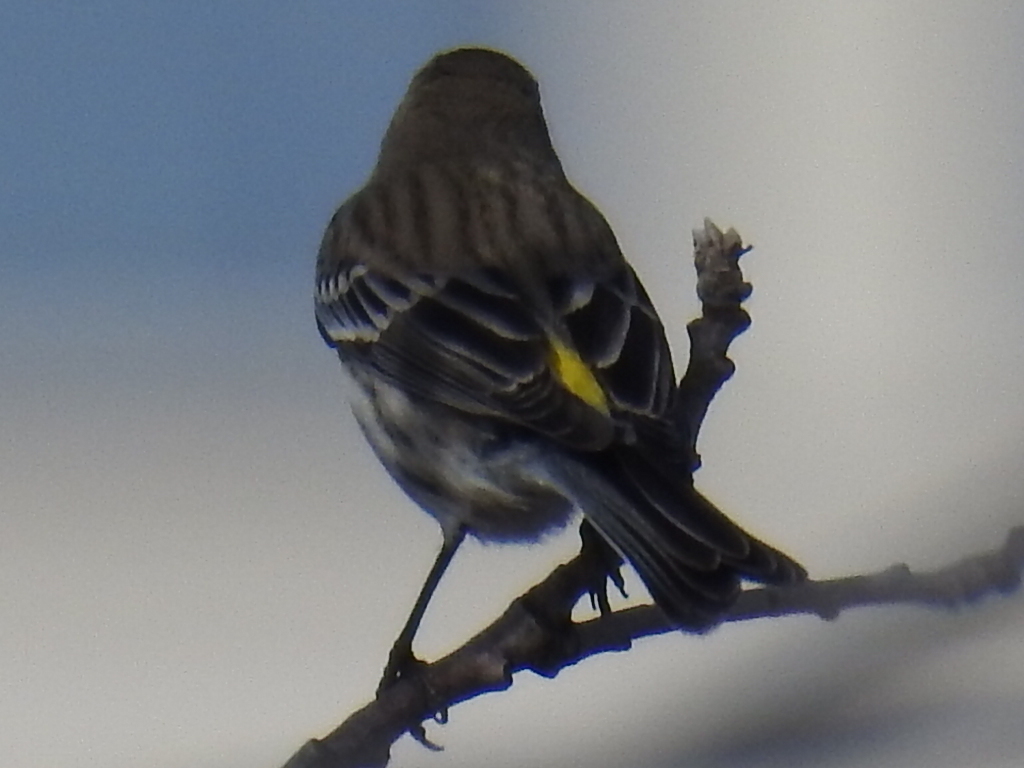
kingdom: Animalia
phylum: Chordata
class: Aves
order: Passeriformes
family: Parulidae
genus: Setophaga
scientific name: Setophaga coronata
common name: Myrtle warbler
